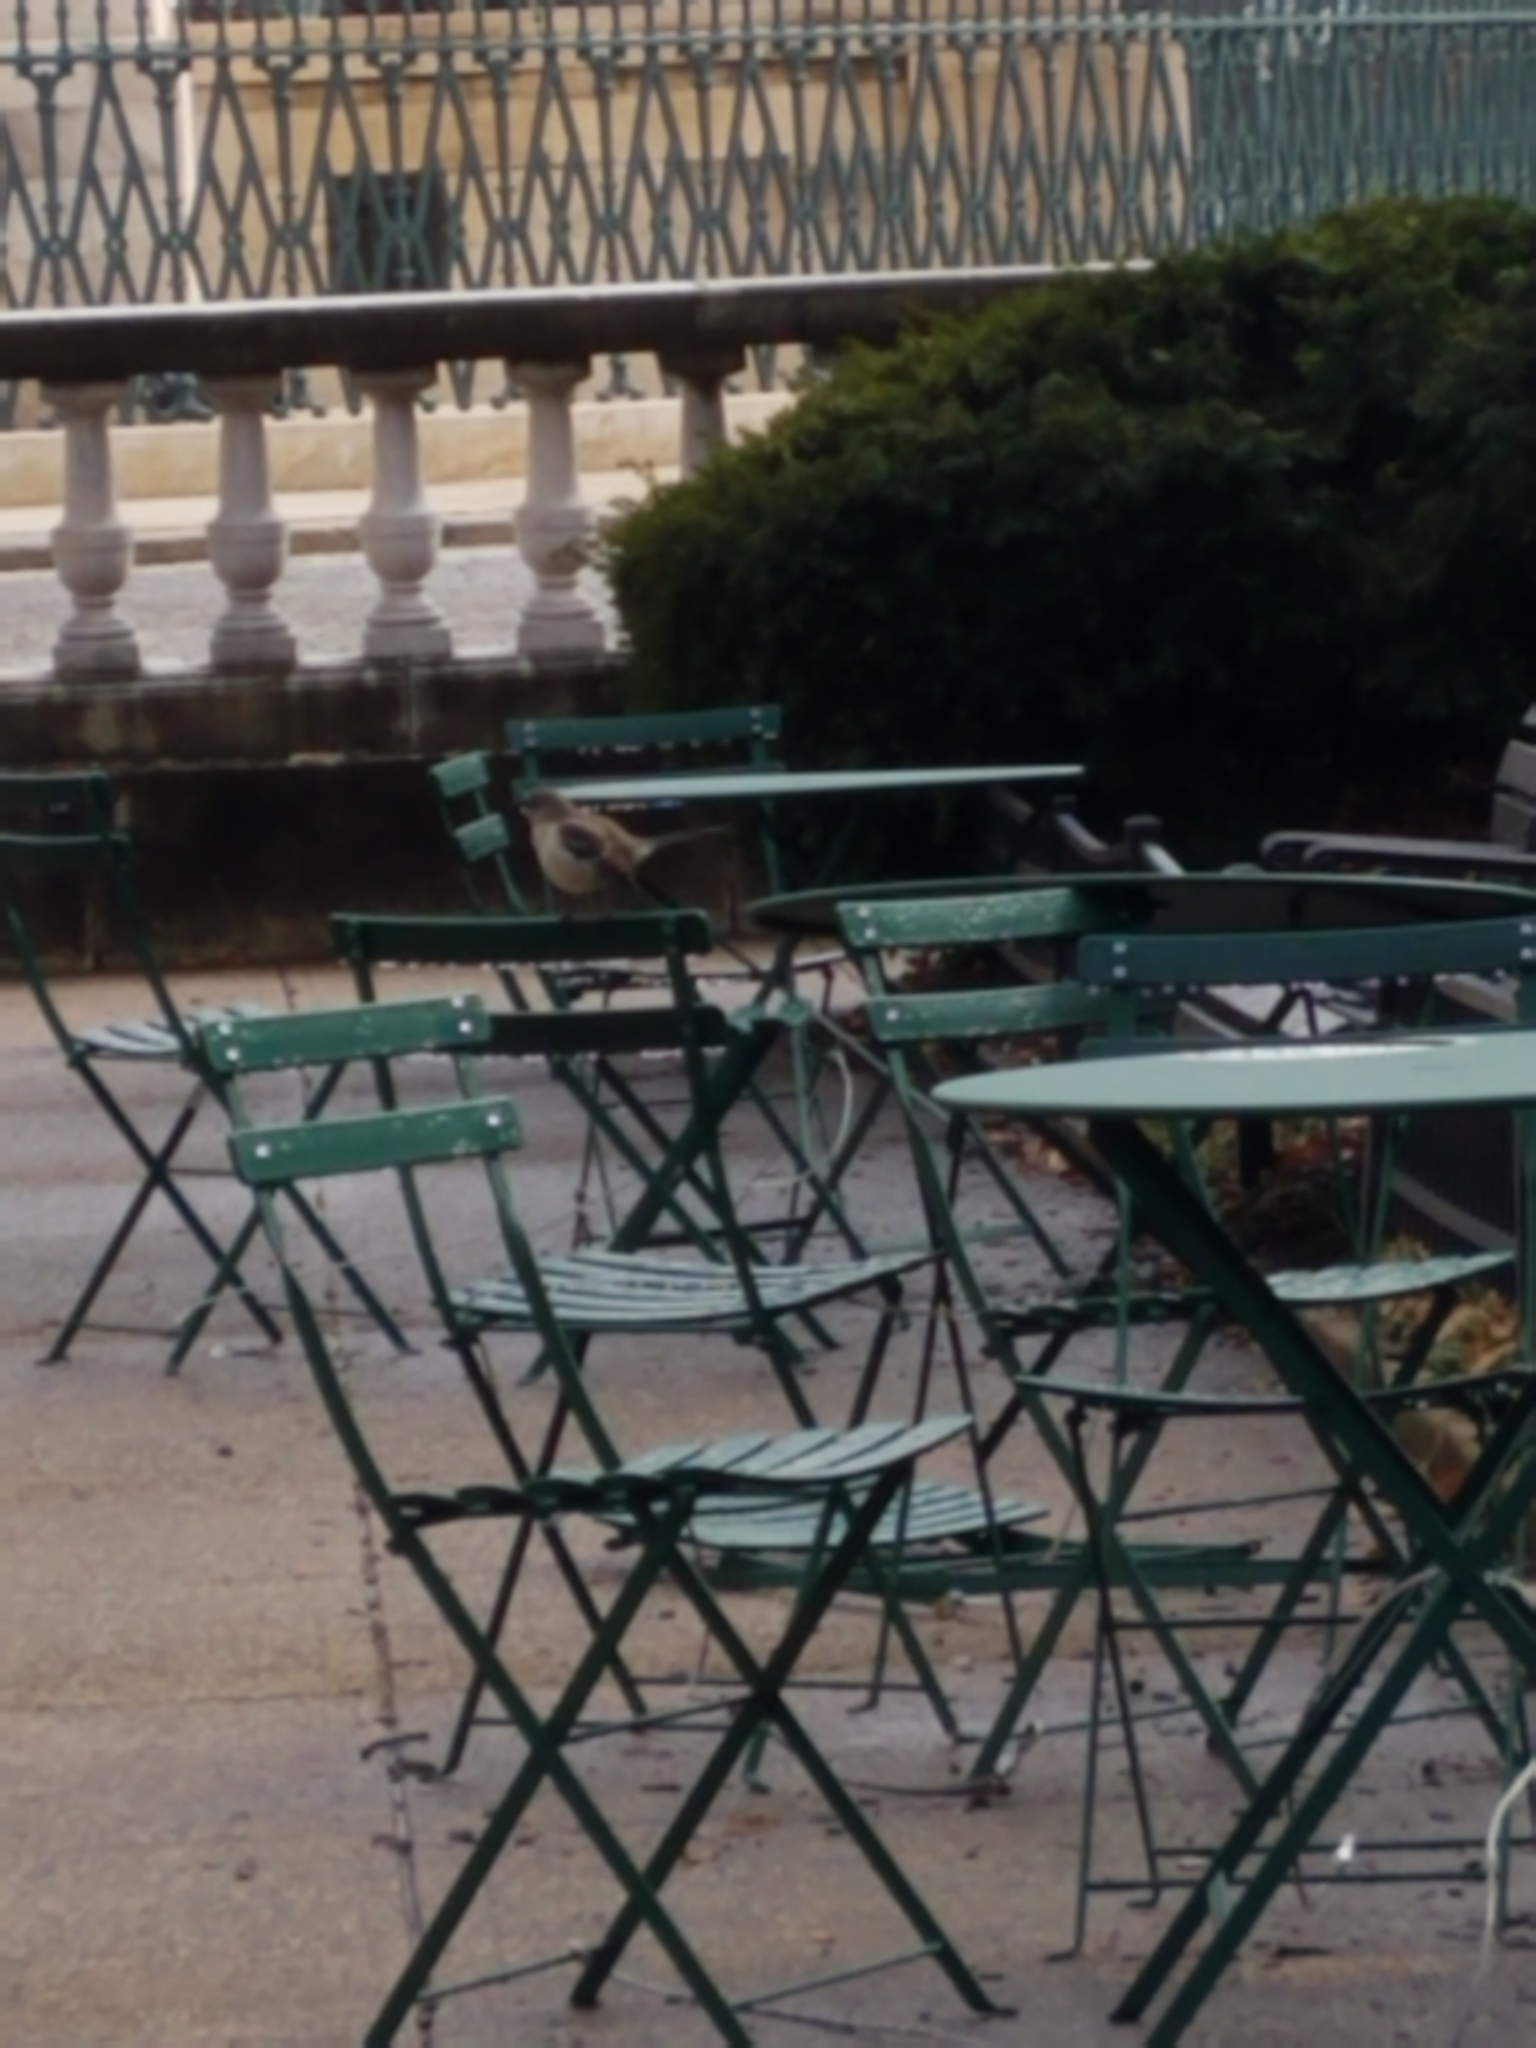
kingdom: Animalia
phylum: Chordata
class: Aves
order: Passeriformes
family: Mimidae
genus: Mimus
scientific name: Mimus polyglottos
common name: Northern mockingbird
